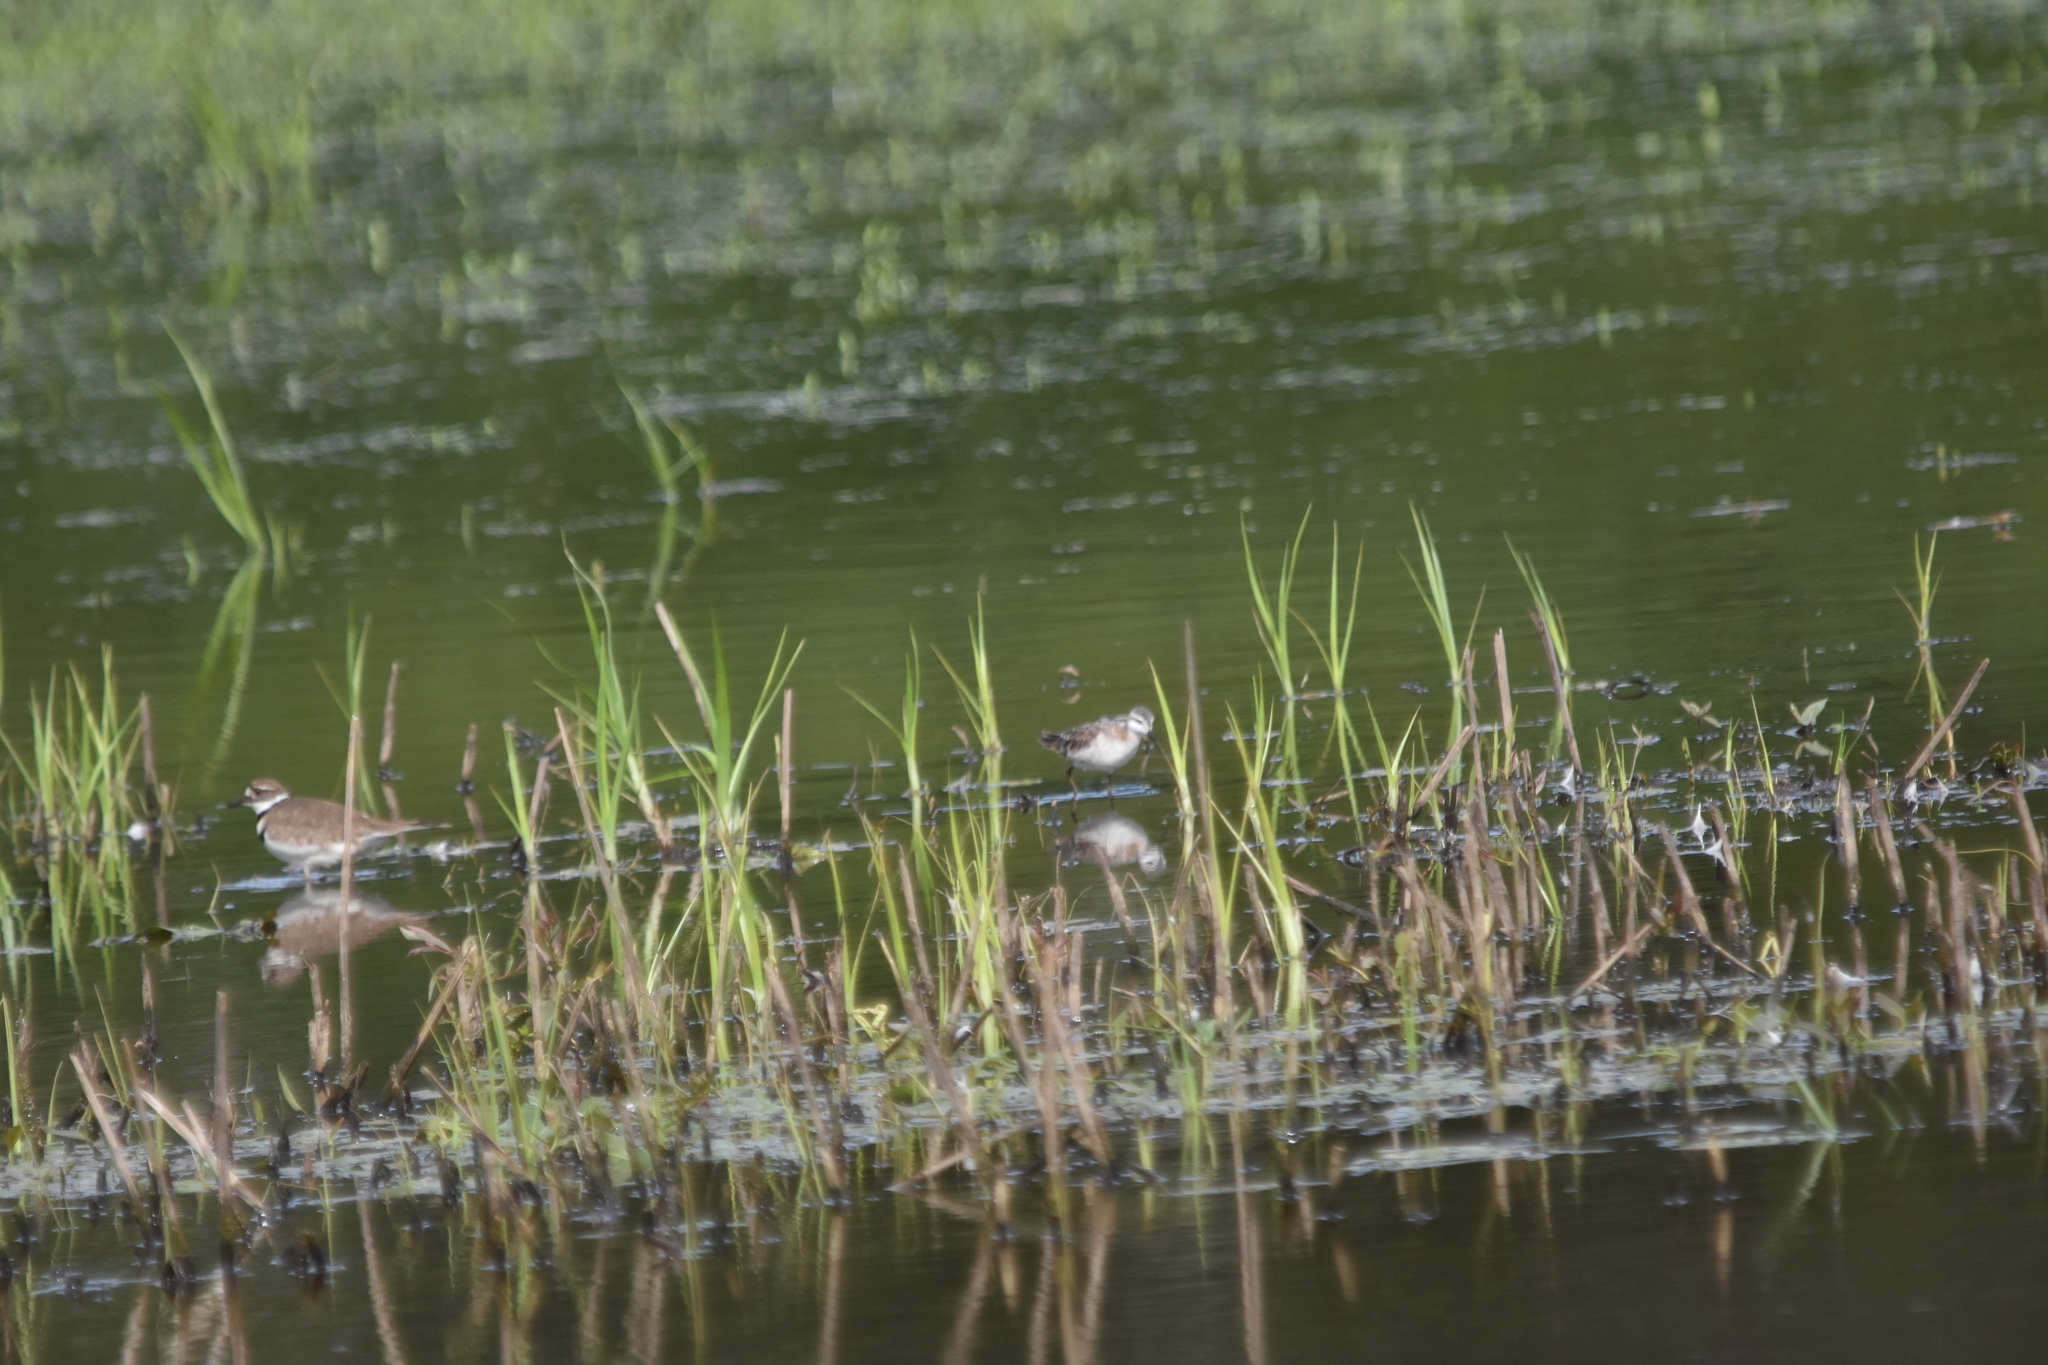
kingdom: Animalia
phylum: Chordata
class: Aves
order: Charadriiformes
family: Scolopacidae
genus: Phalaropus
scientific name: Phalaropus tricolor
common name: Wilson's phalarope
